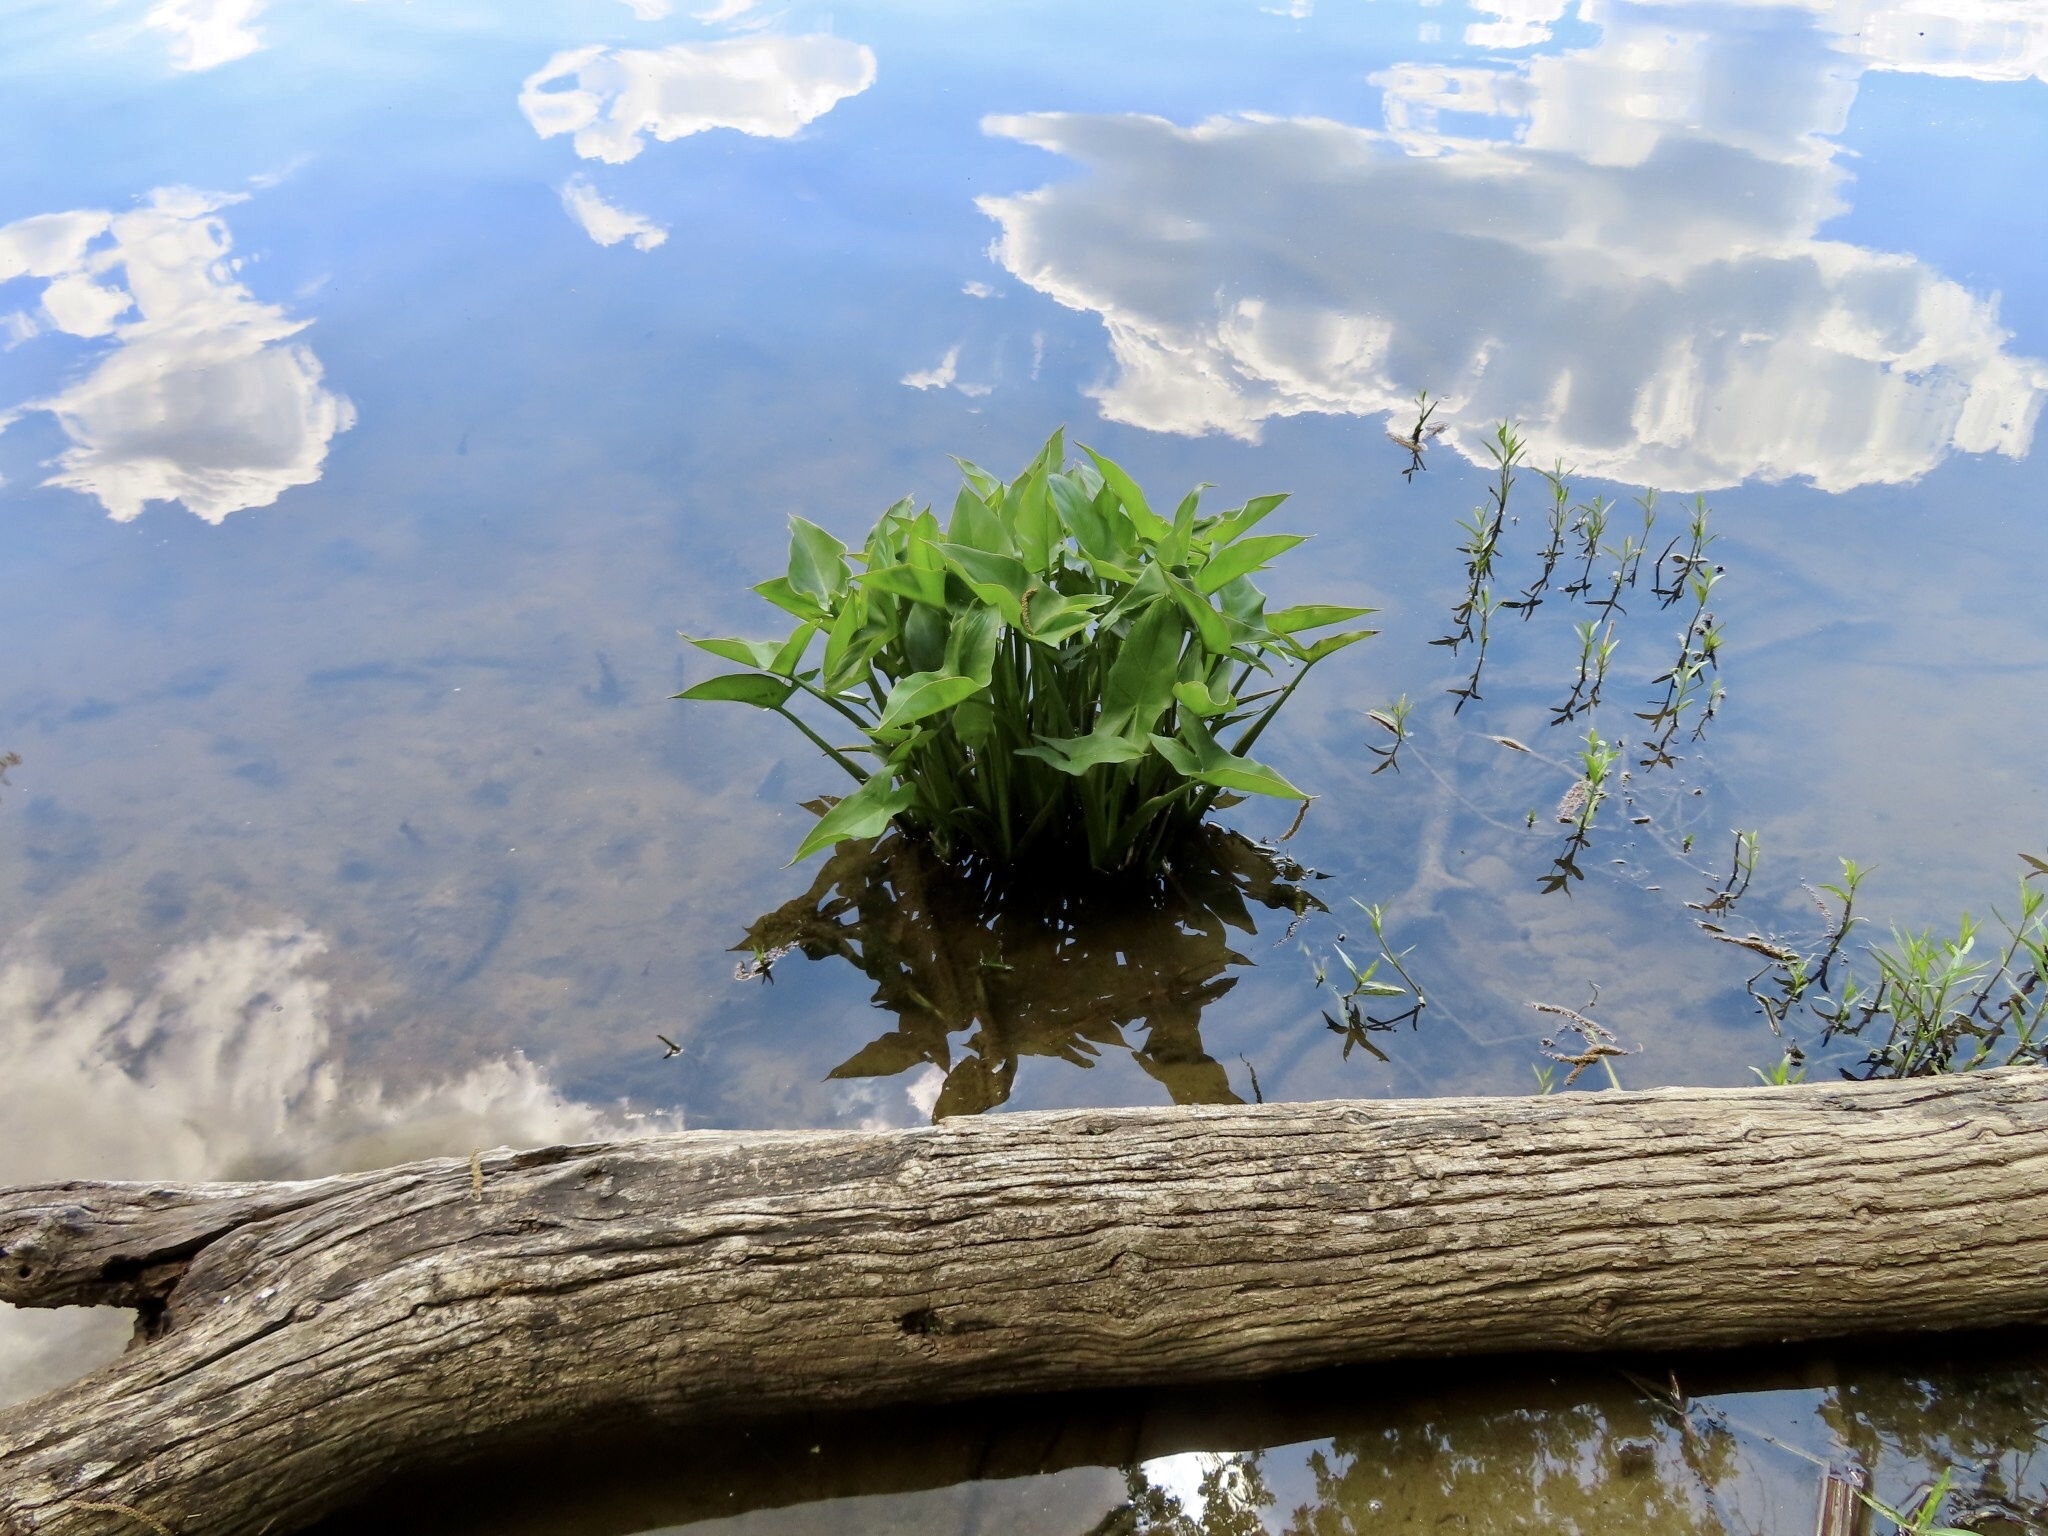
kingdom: Plantae
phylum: Tracheophyta
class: Liliopsida
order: Alismatales
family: Araceae
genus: Peltandra
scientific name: Peltandra virginica
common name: Arrow arum
